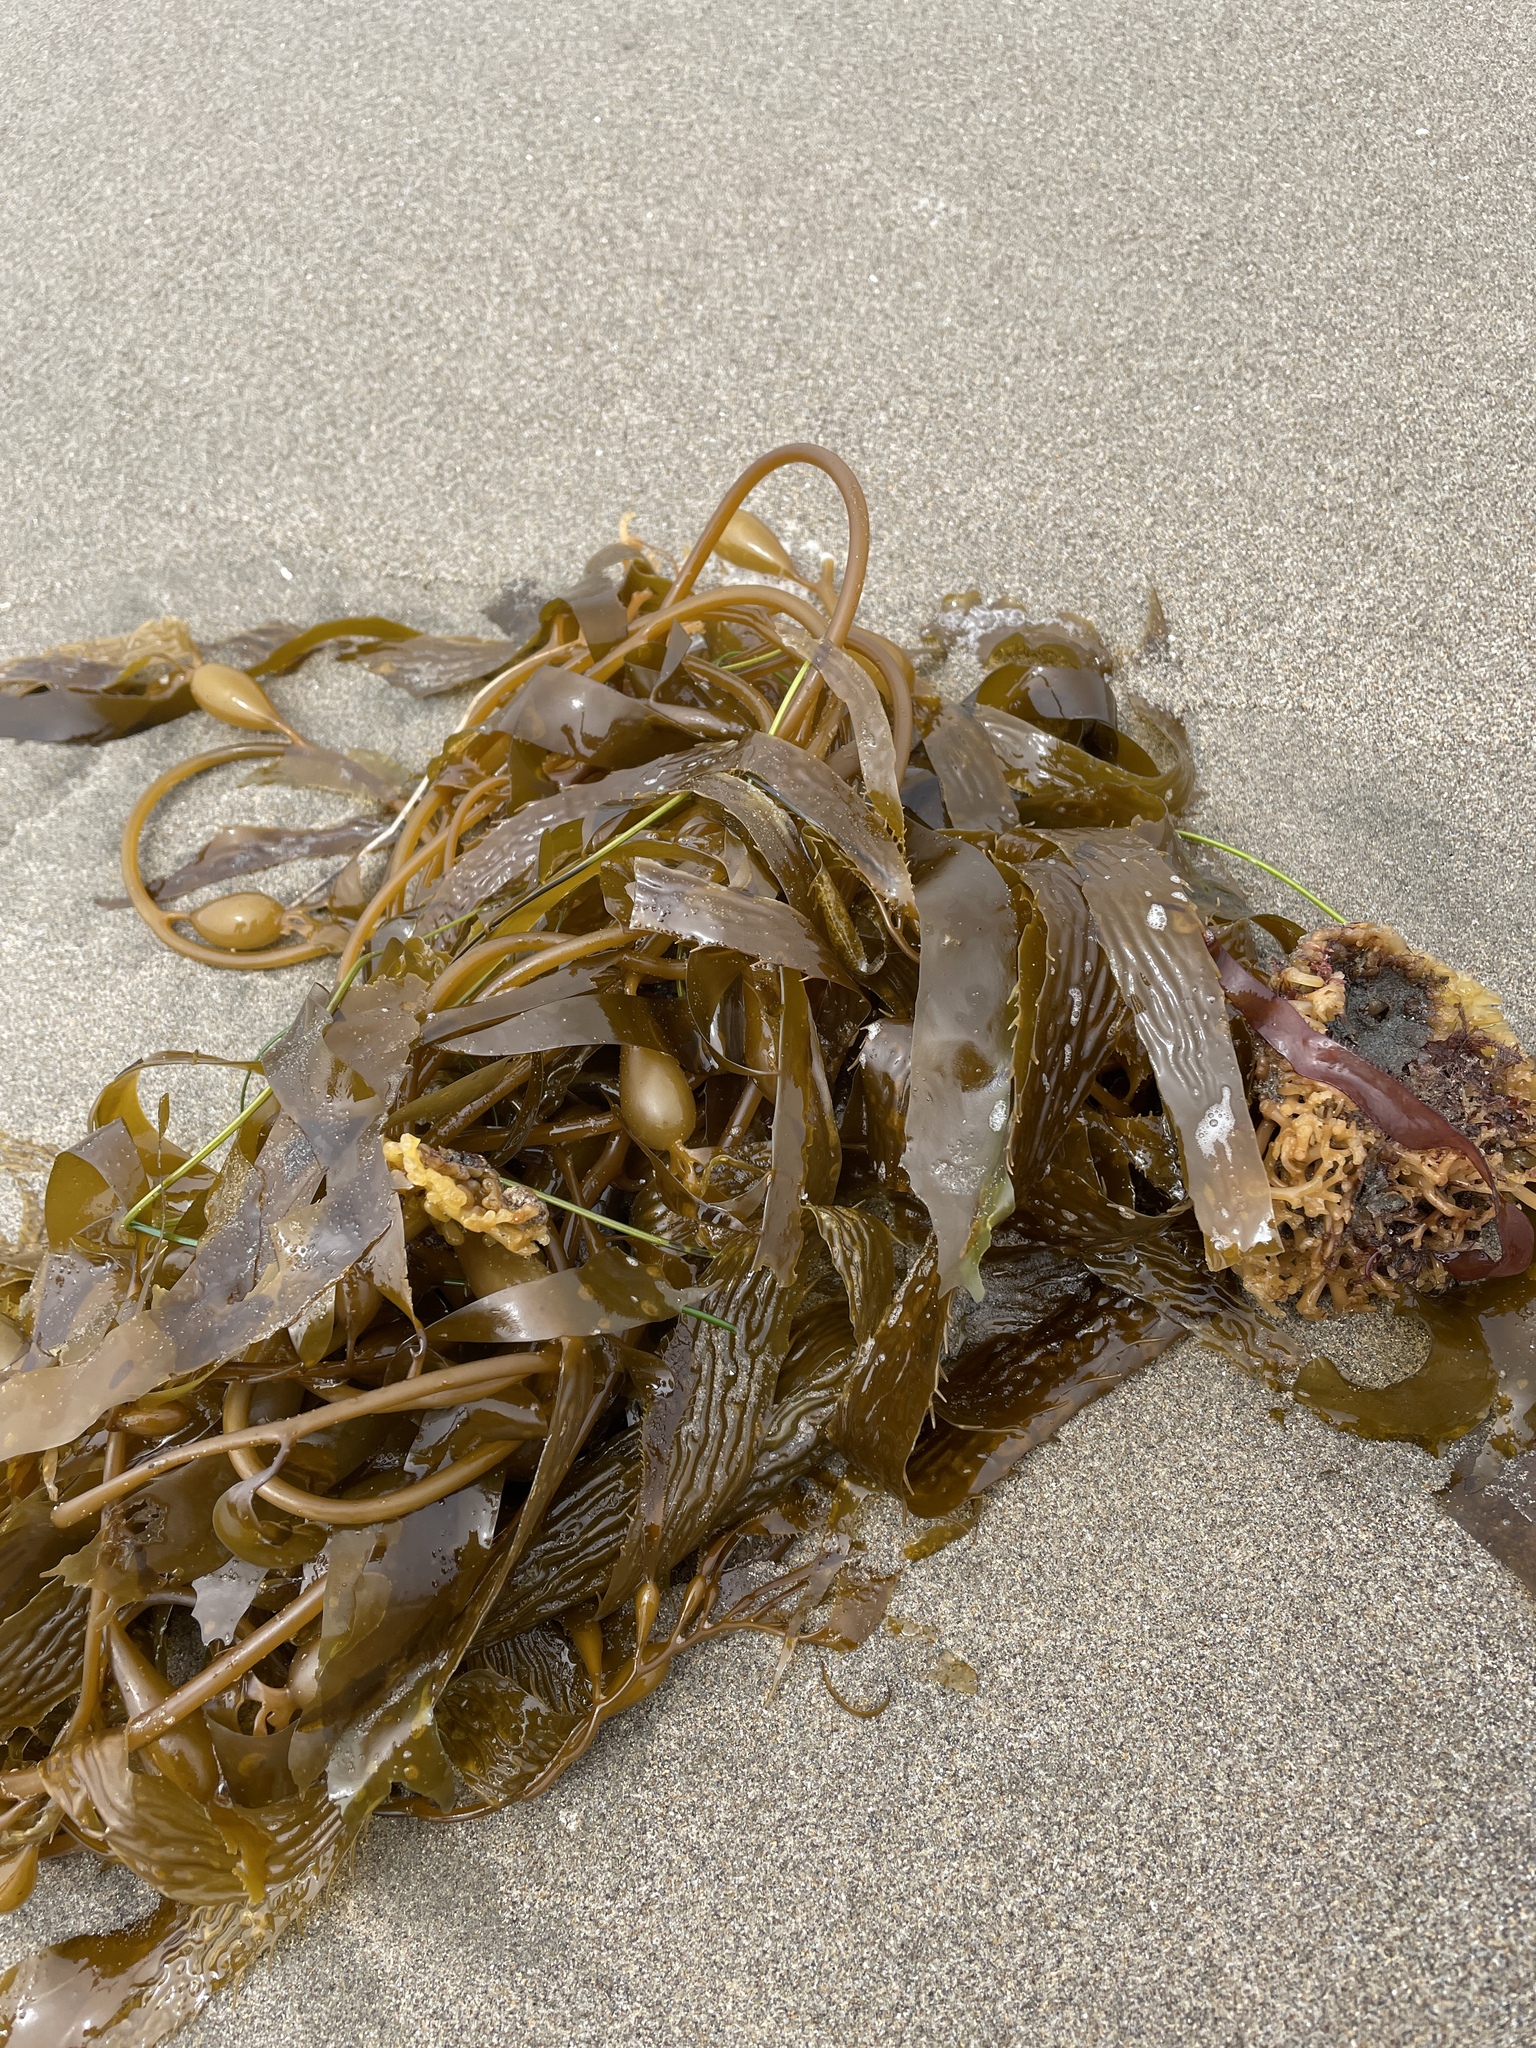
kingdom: Chromista
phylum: Ochrophyta
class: Phaeophyceae
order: Laminariales
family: Laminariaceae
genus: Macrocystis
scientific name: Macrocystis pyrifera
